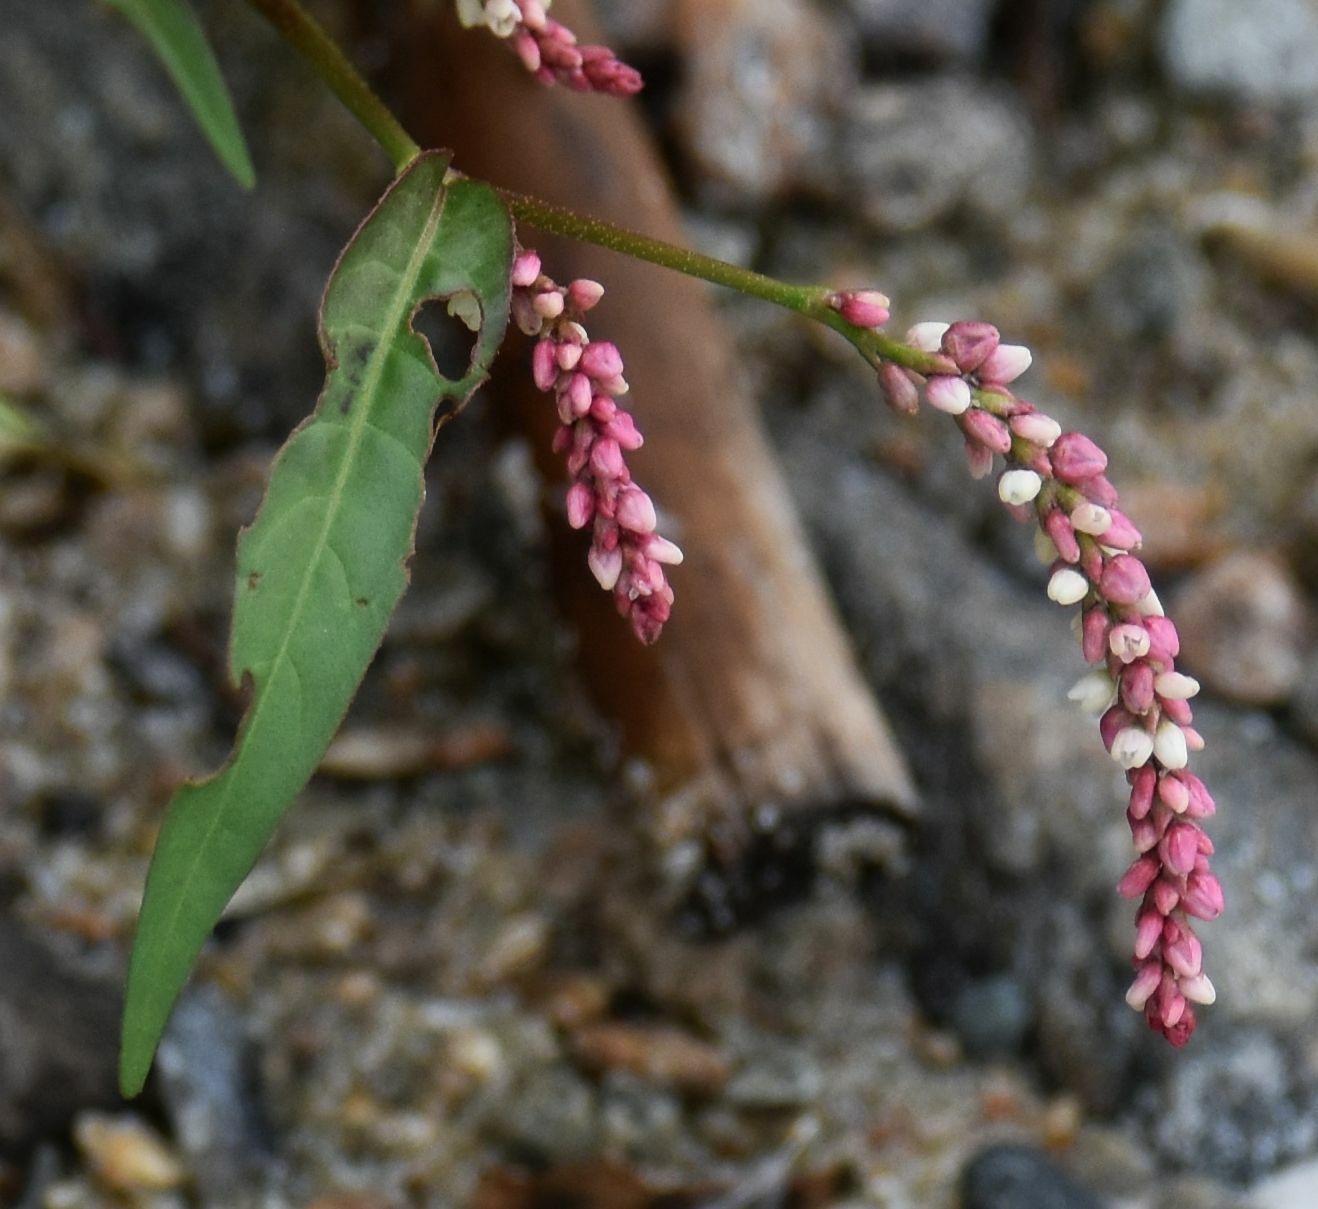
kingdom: Plantae
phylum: Tracheophyta
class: Magnoliopsida
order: Caryophyllales
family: Polygonaceae
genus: Persicaria
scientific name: Persicaria maculosa
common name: Redshank
